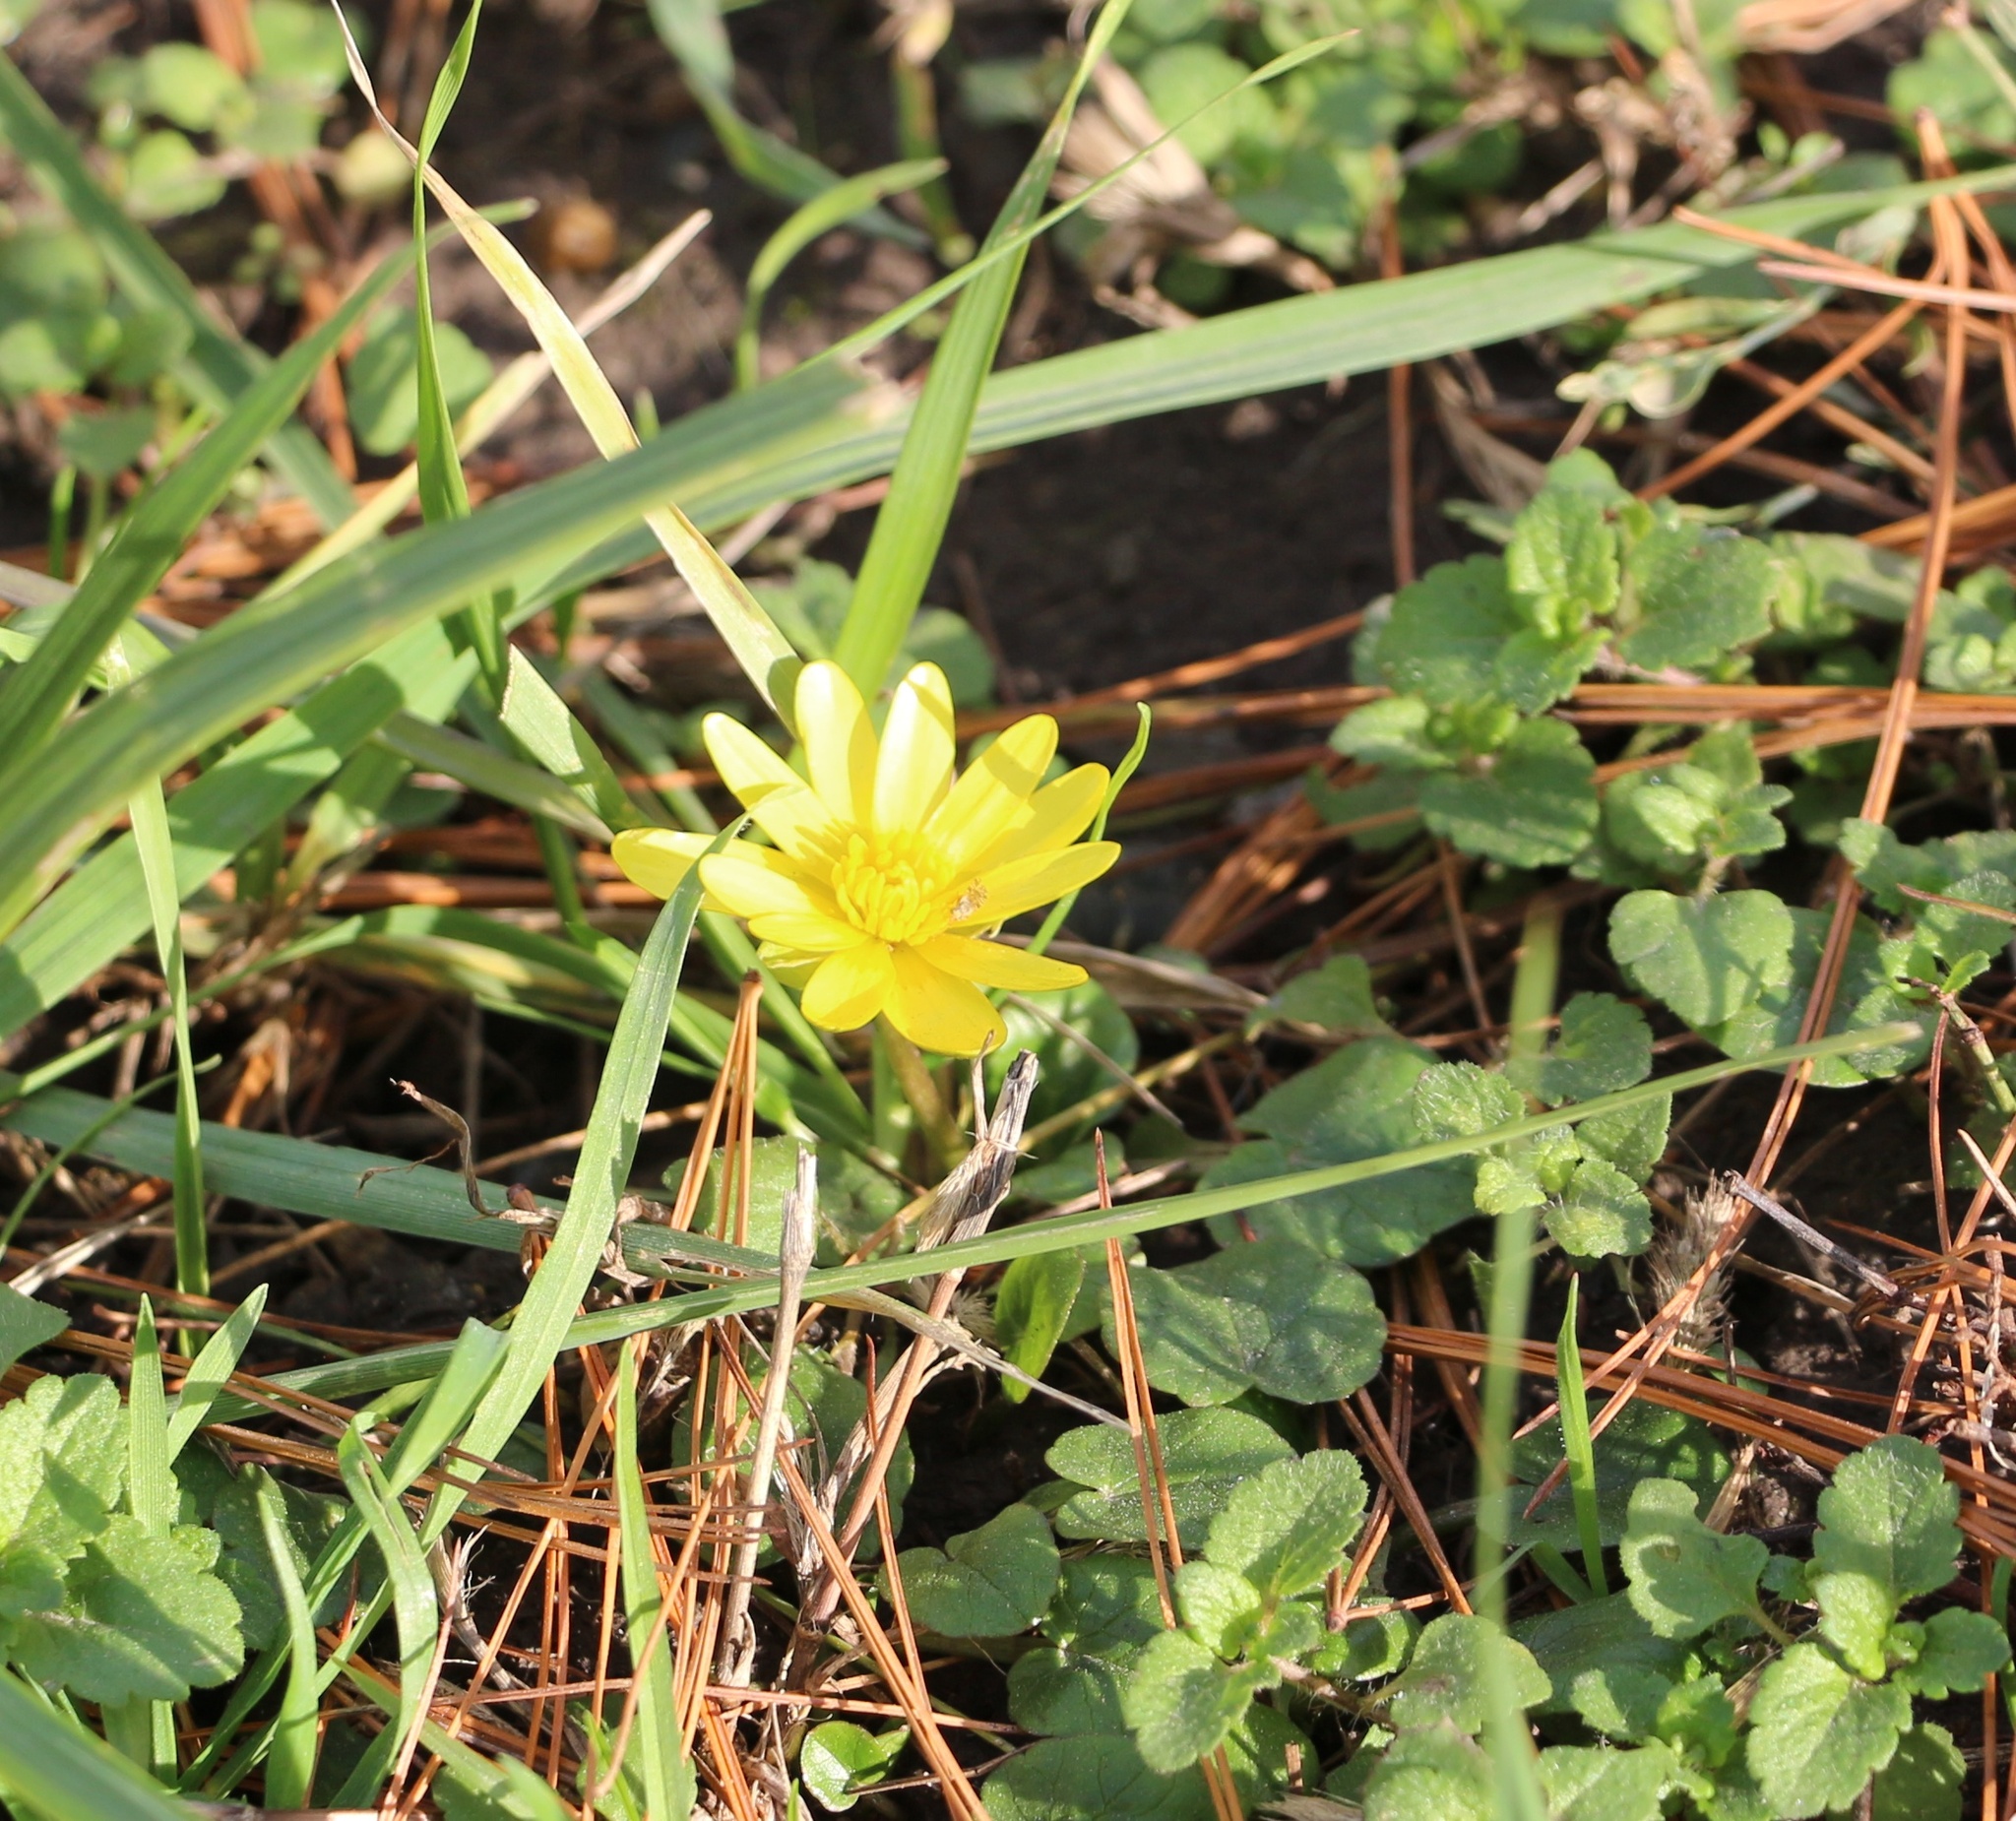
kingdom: Plantae
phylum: Tracheophyta
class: Magnoliopsida
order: Ranunculales
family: Ranunculaceae
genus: Ficaria
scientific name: Ficaria verna
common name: Lesser celandine
